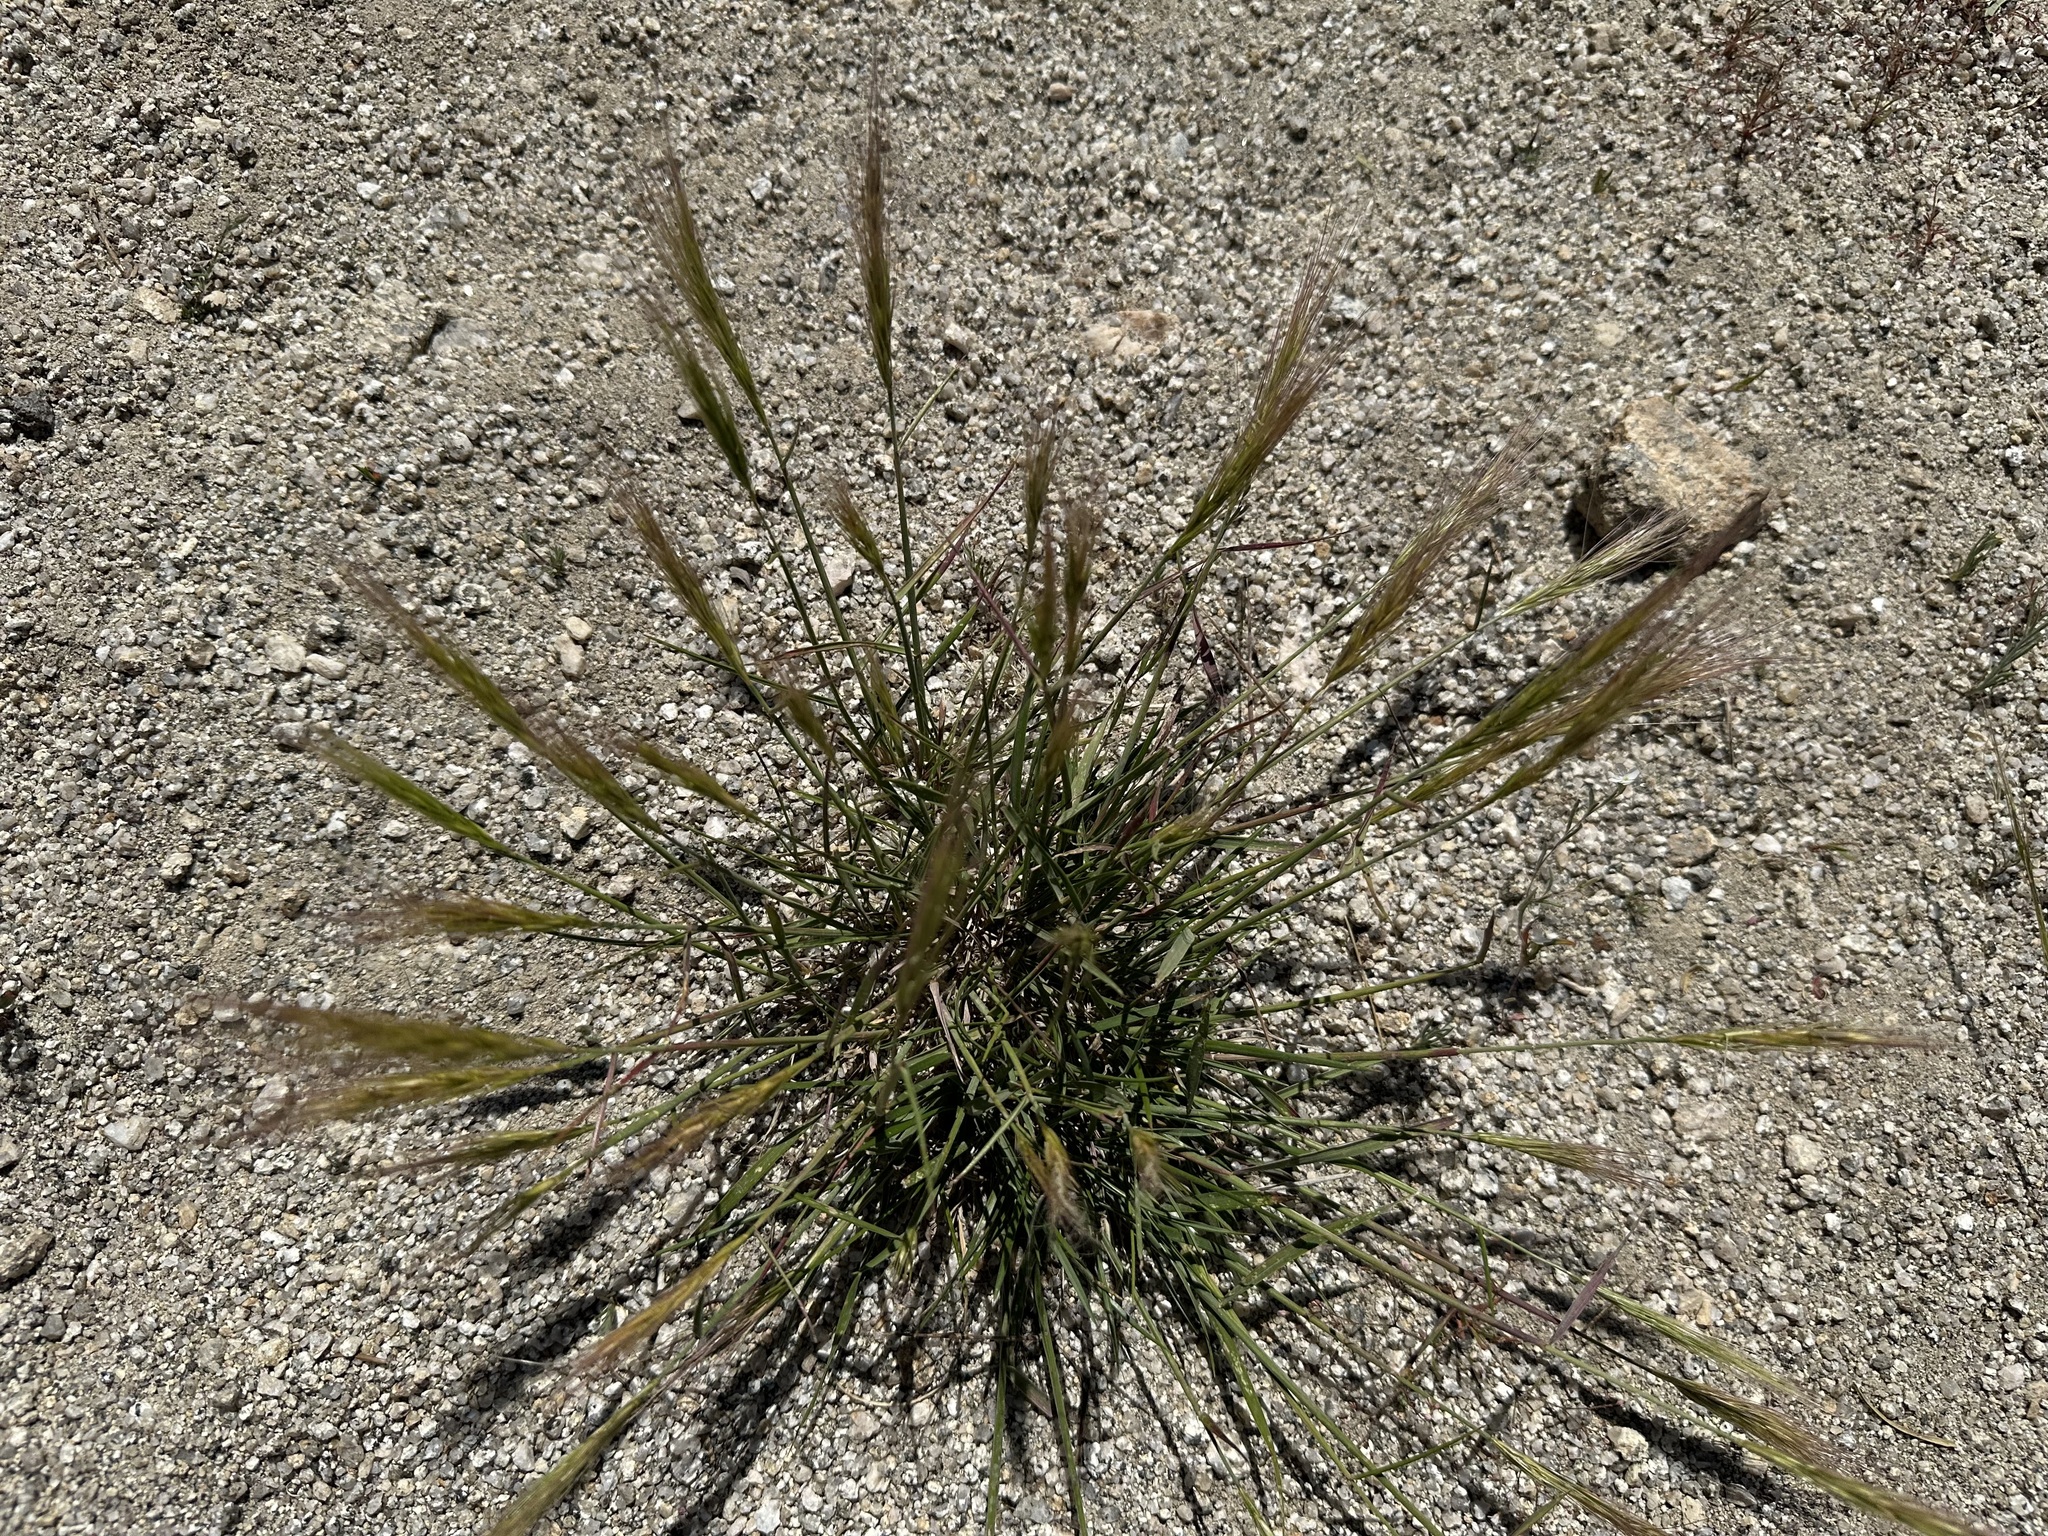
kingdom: Plantae
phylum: Tracheophyta
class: Liliopsida
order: Poales
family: Poaceae
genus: Elymus
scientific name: Elymus elymoides
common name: Bottlebrush squirreltail
